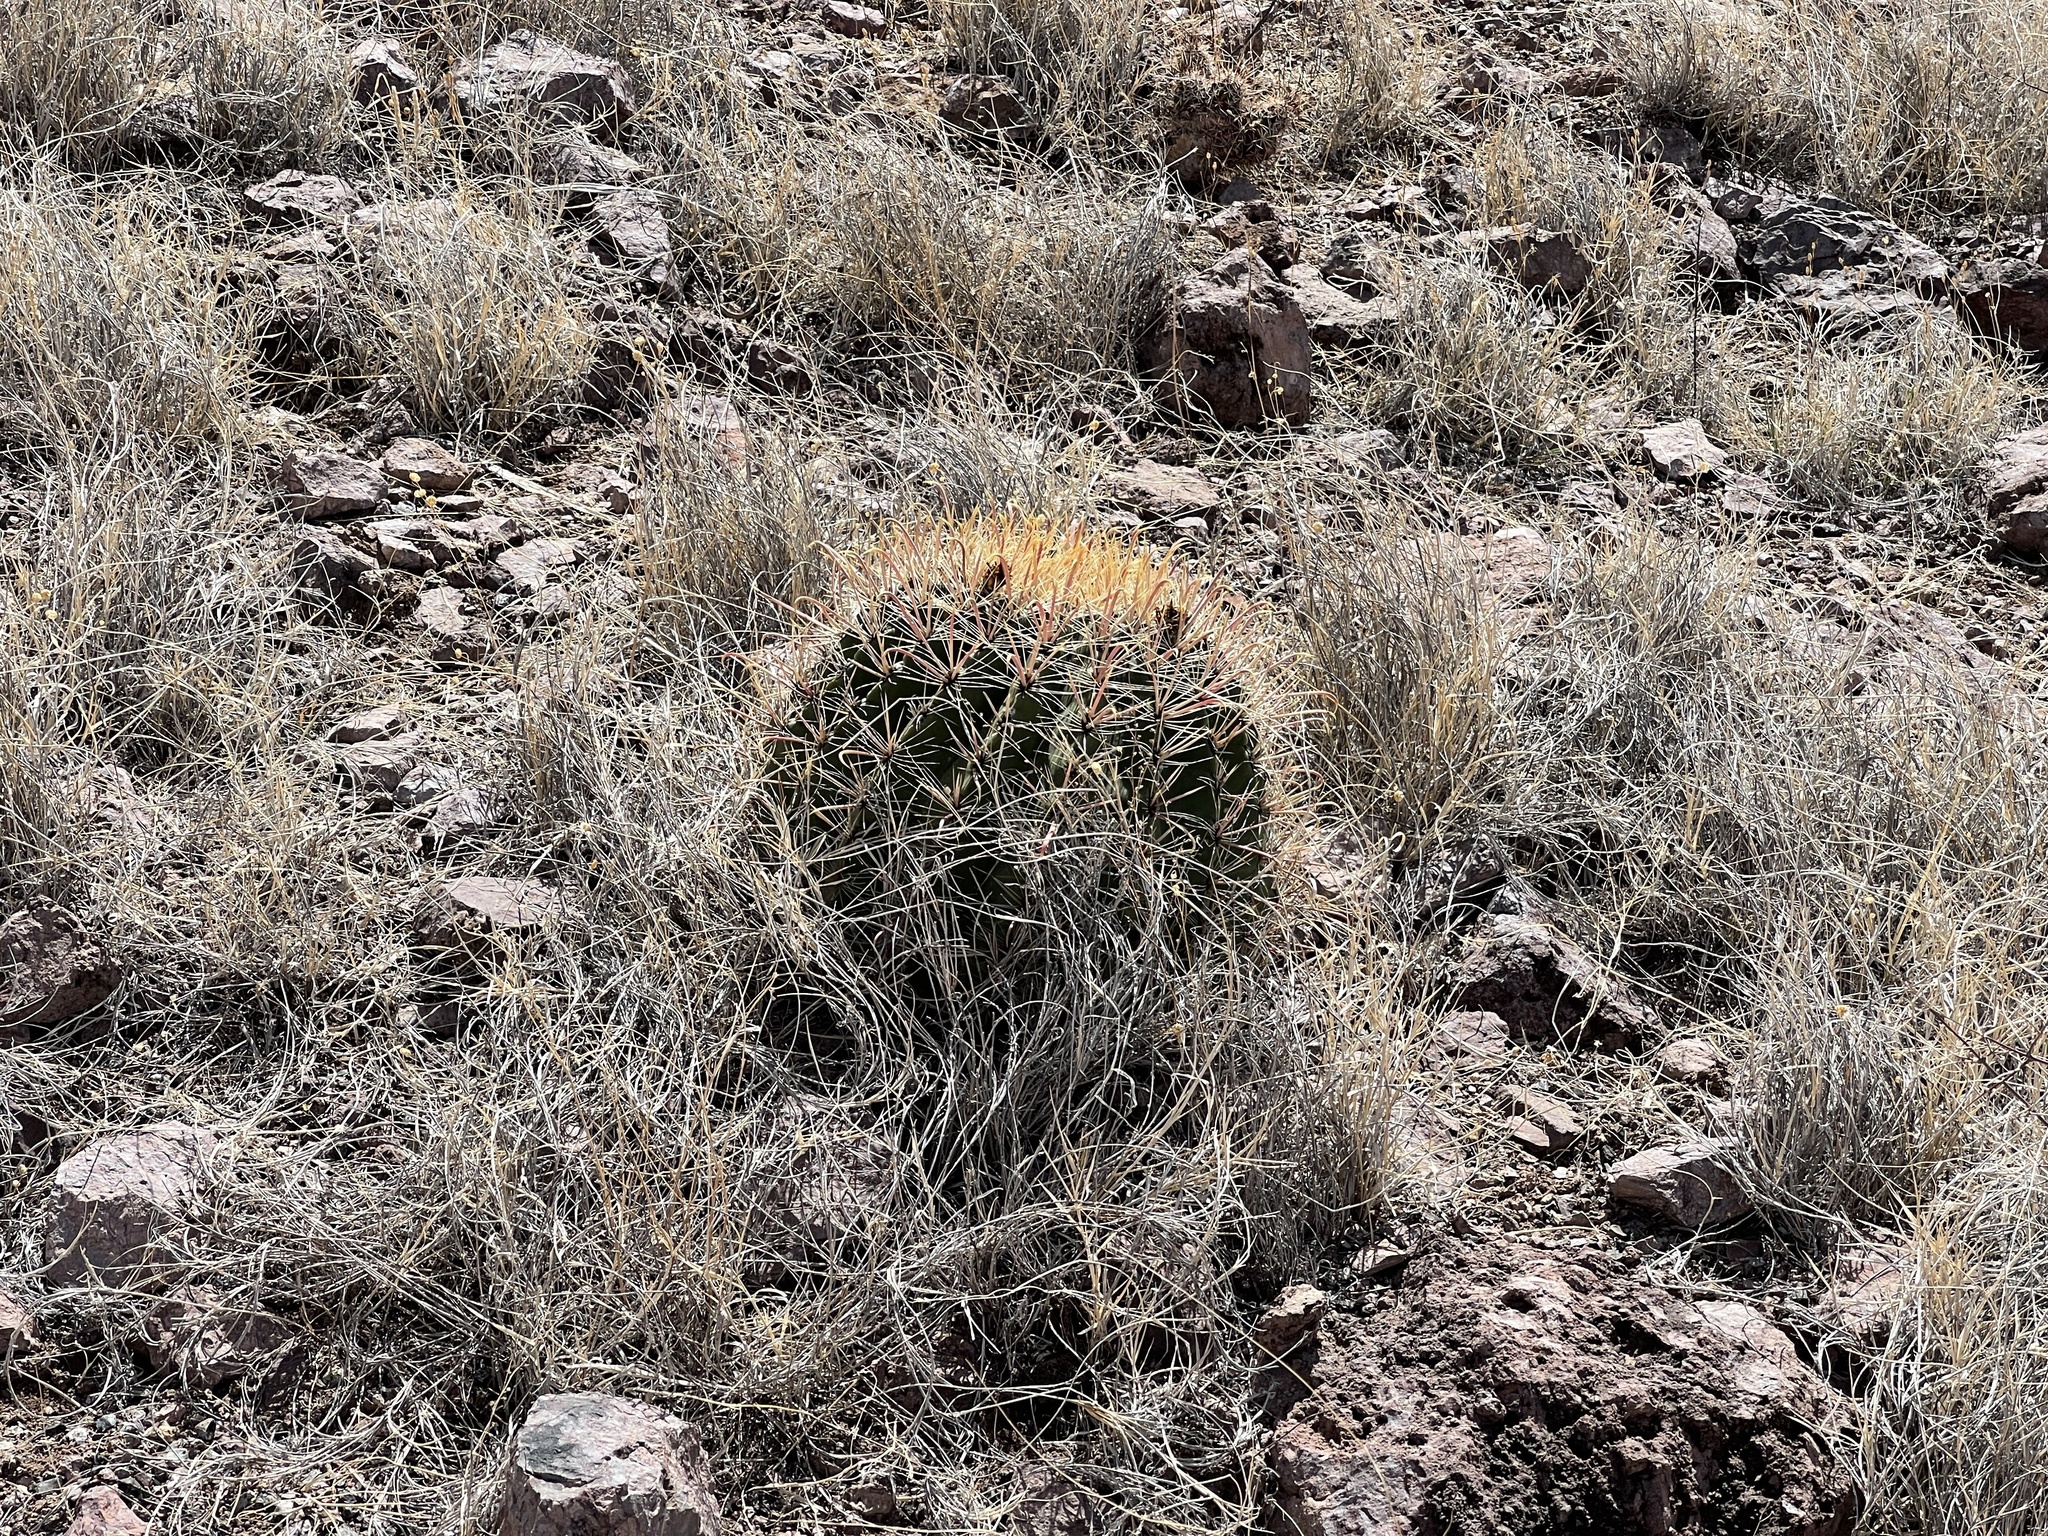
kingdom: Plantae
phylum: Tracheophyta
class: Magnoliopsida
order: Caryophyllales
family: Cactaceae
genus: Ferocactus
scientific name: Ferocactus wislizeni
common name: Candy barrel cactus
